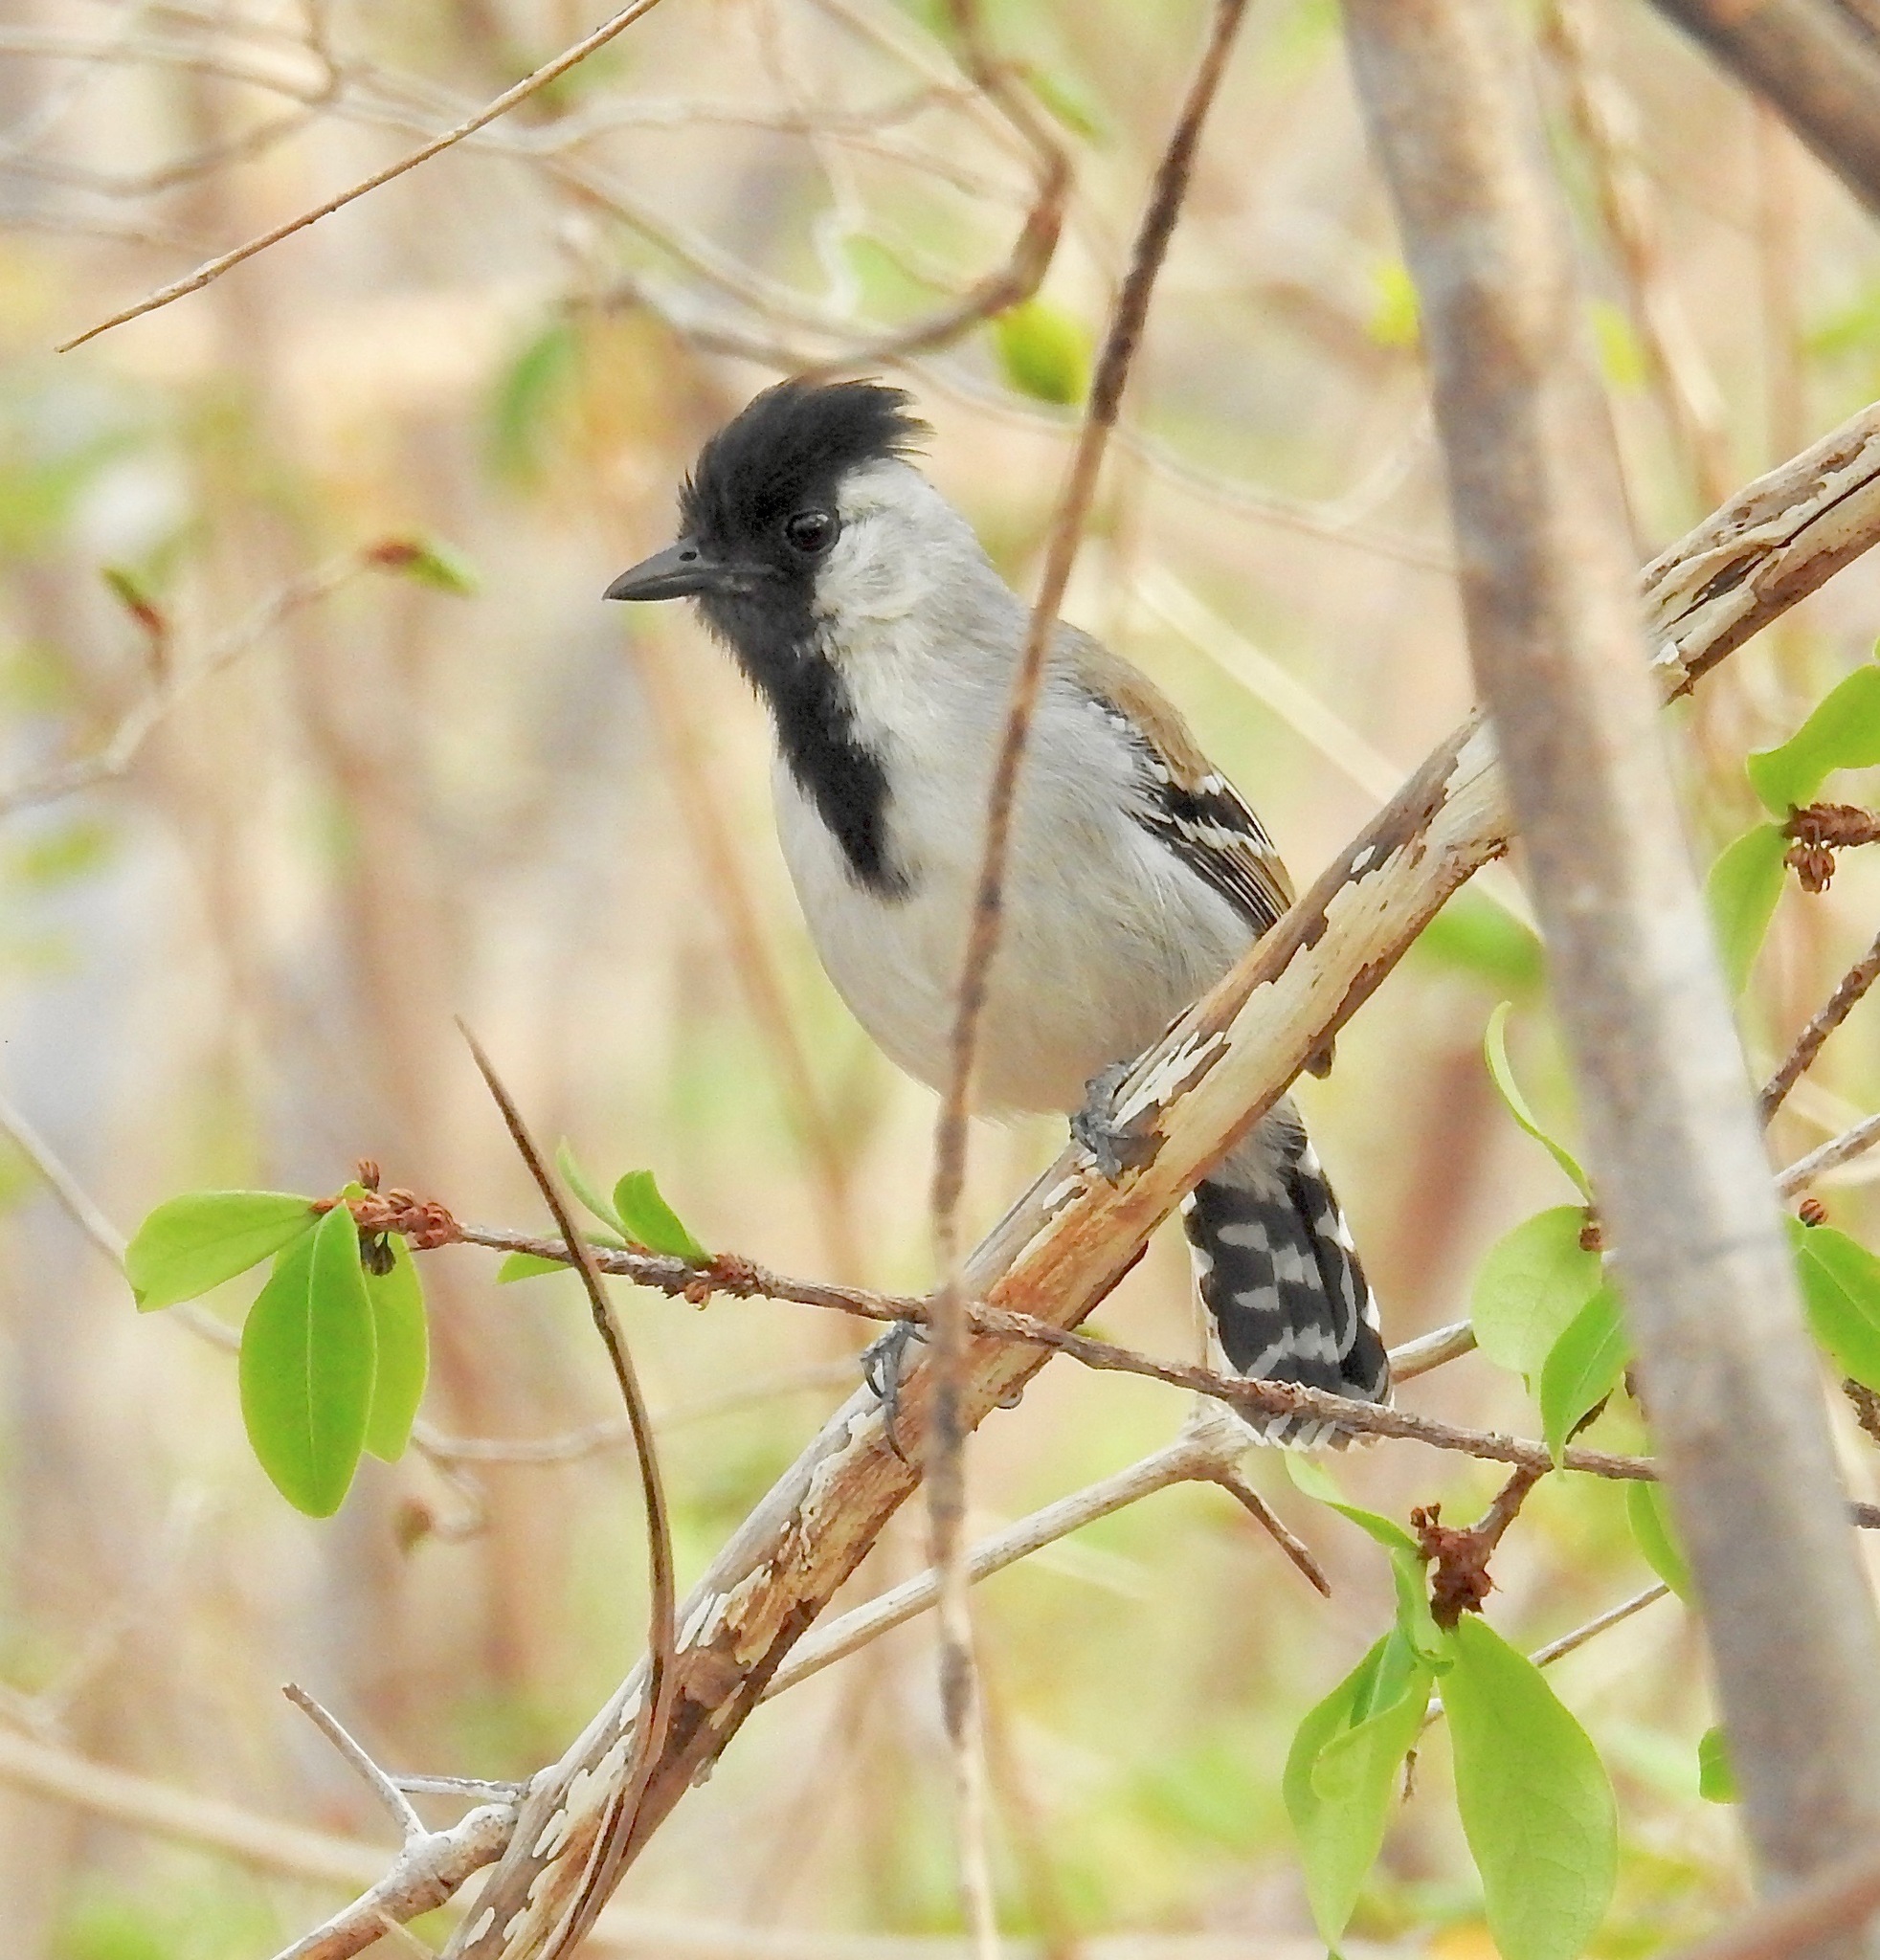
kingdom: Animalia
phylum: Chordata
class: Aves
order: Passeriformes
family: Thamnophilidae
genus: Sakesphorus
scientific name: Sakesphorus cristatus
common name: Silvery-cheeked antshrike
